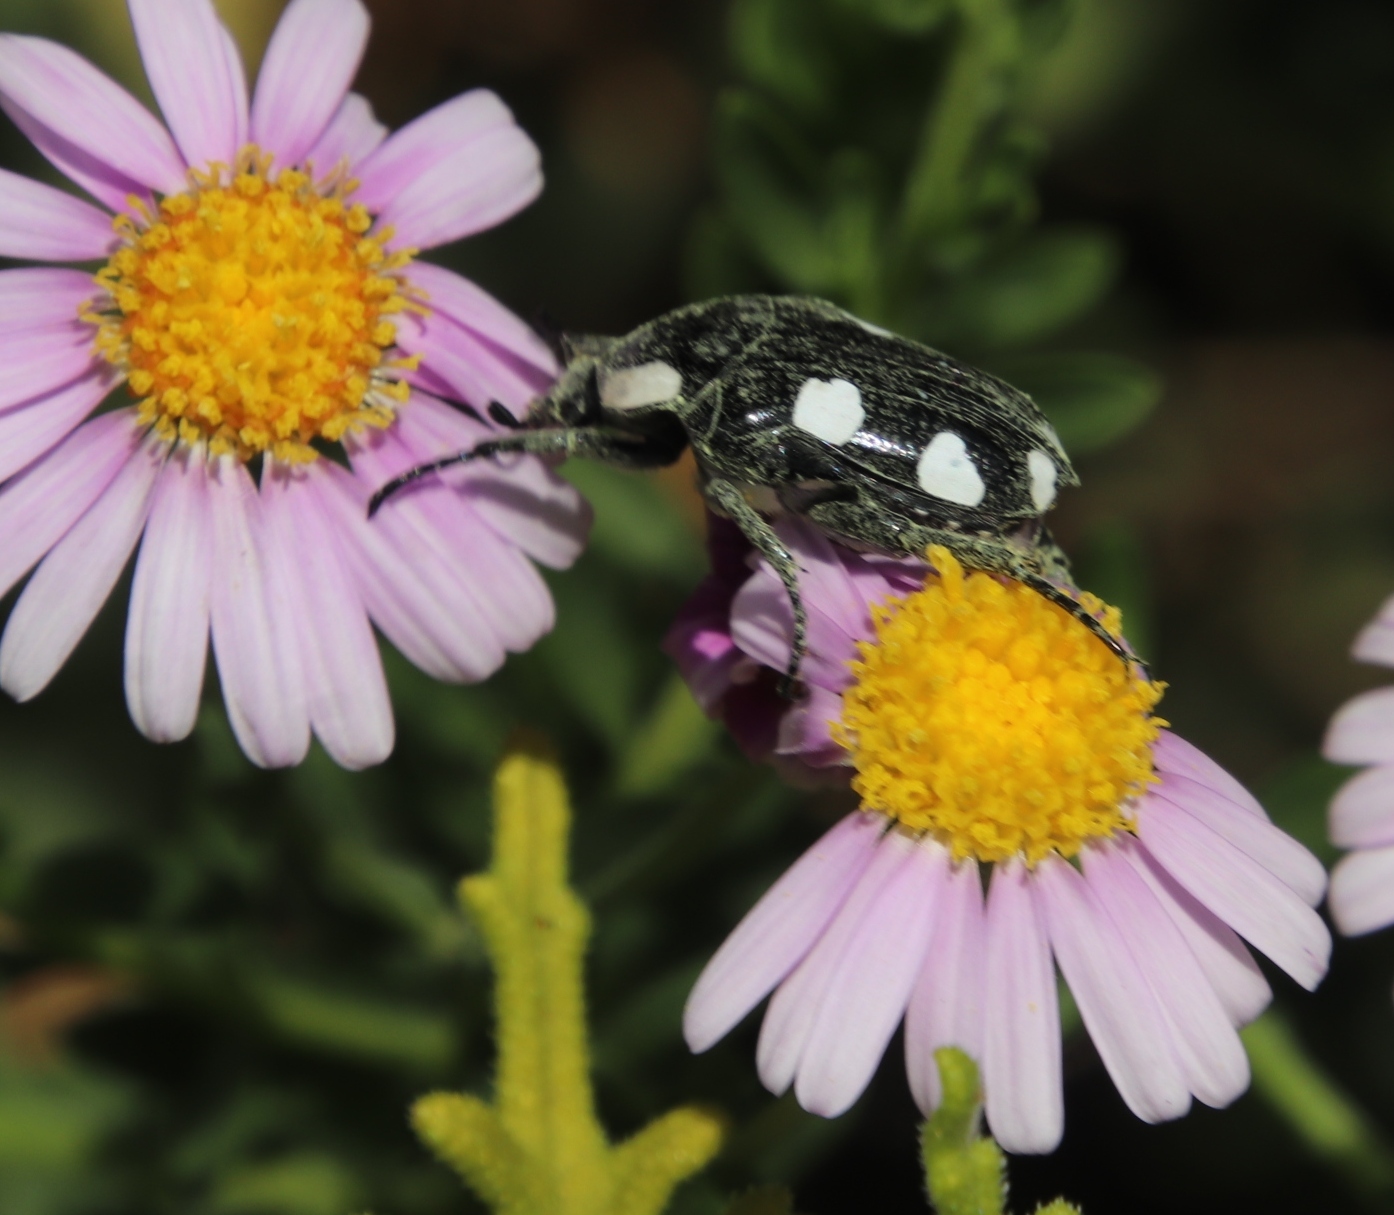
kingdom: Animalia
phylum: Arthropoda
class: Insecta
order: Coleoptera
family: Scarabaeidae
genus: Mausoleopsis
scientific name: Mausoleopsis amabilis
